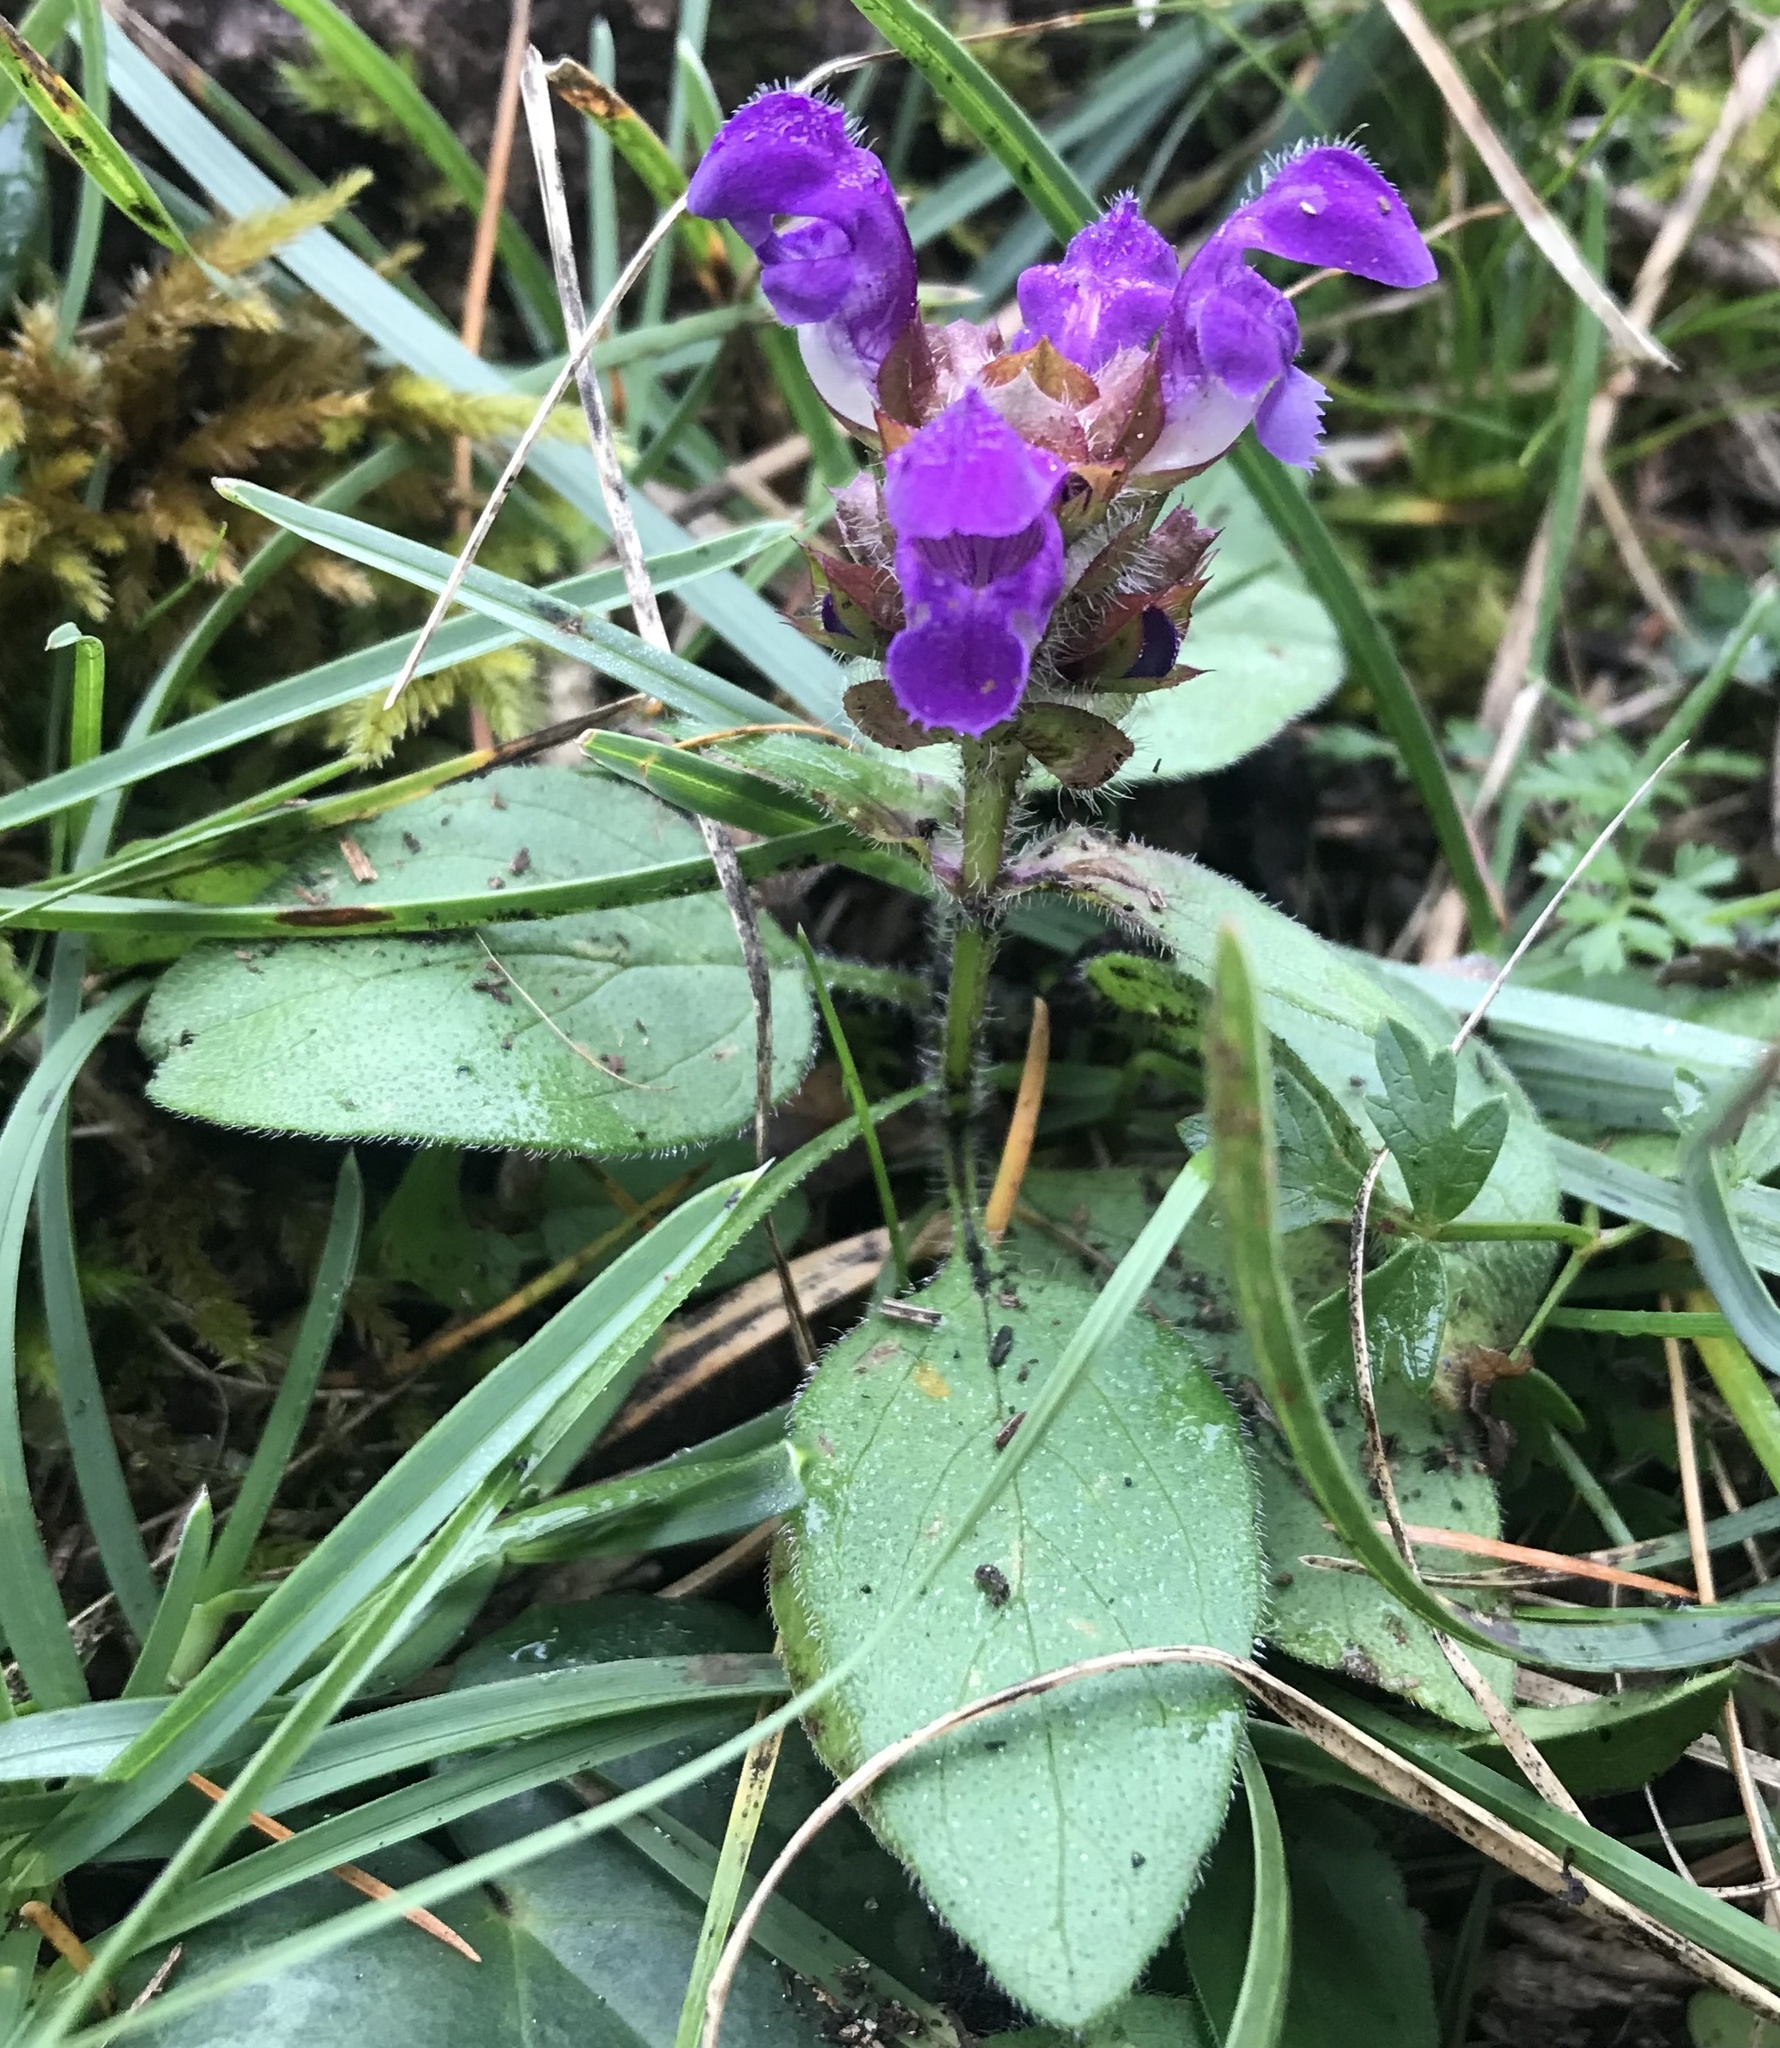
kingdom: Plantae
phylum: Tracheophyta
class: Magnoliopsida
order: Lamiales
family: Lamiaceae
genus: Prunella
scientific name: Prunella grandiflora
